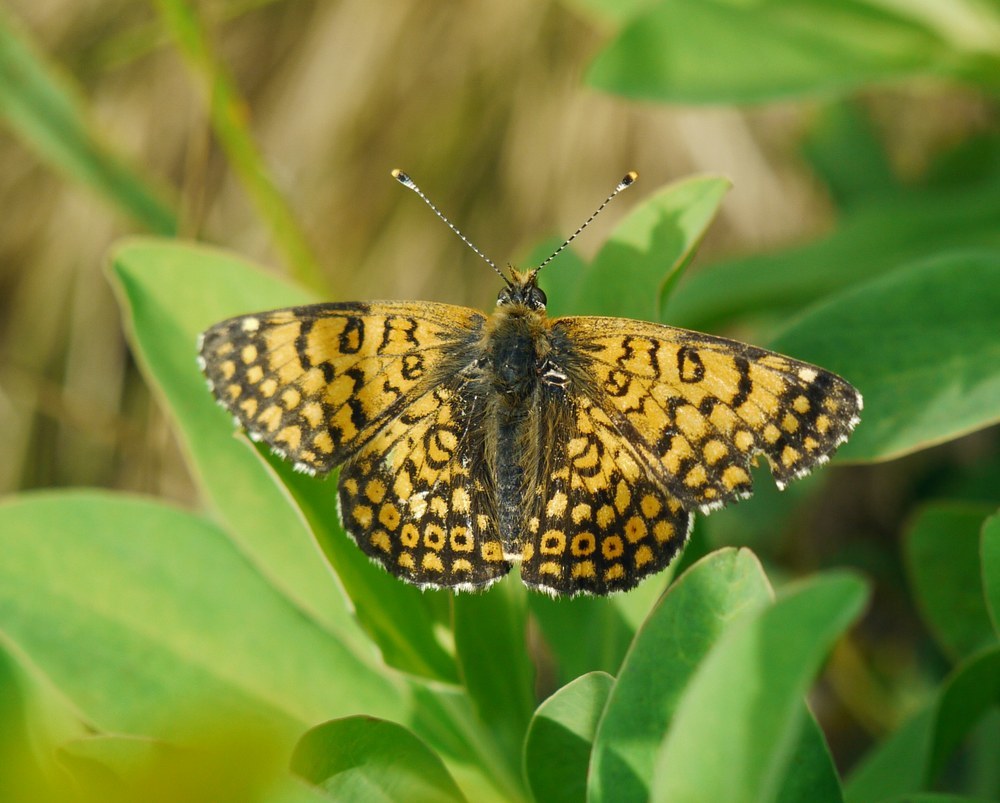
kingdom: Animalia
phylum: Arthropoda
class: Insecta
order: Lepidoptera
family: Nymphalidae
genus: Melitaea
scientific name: Melitaea cinxia
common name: Glanville fritillary
